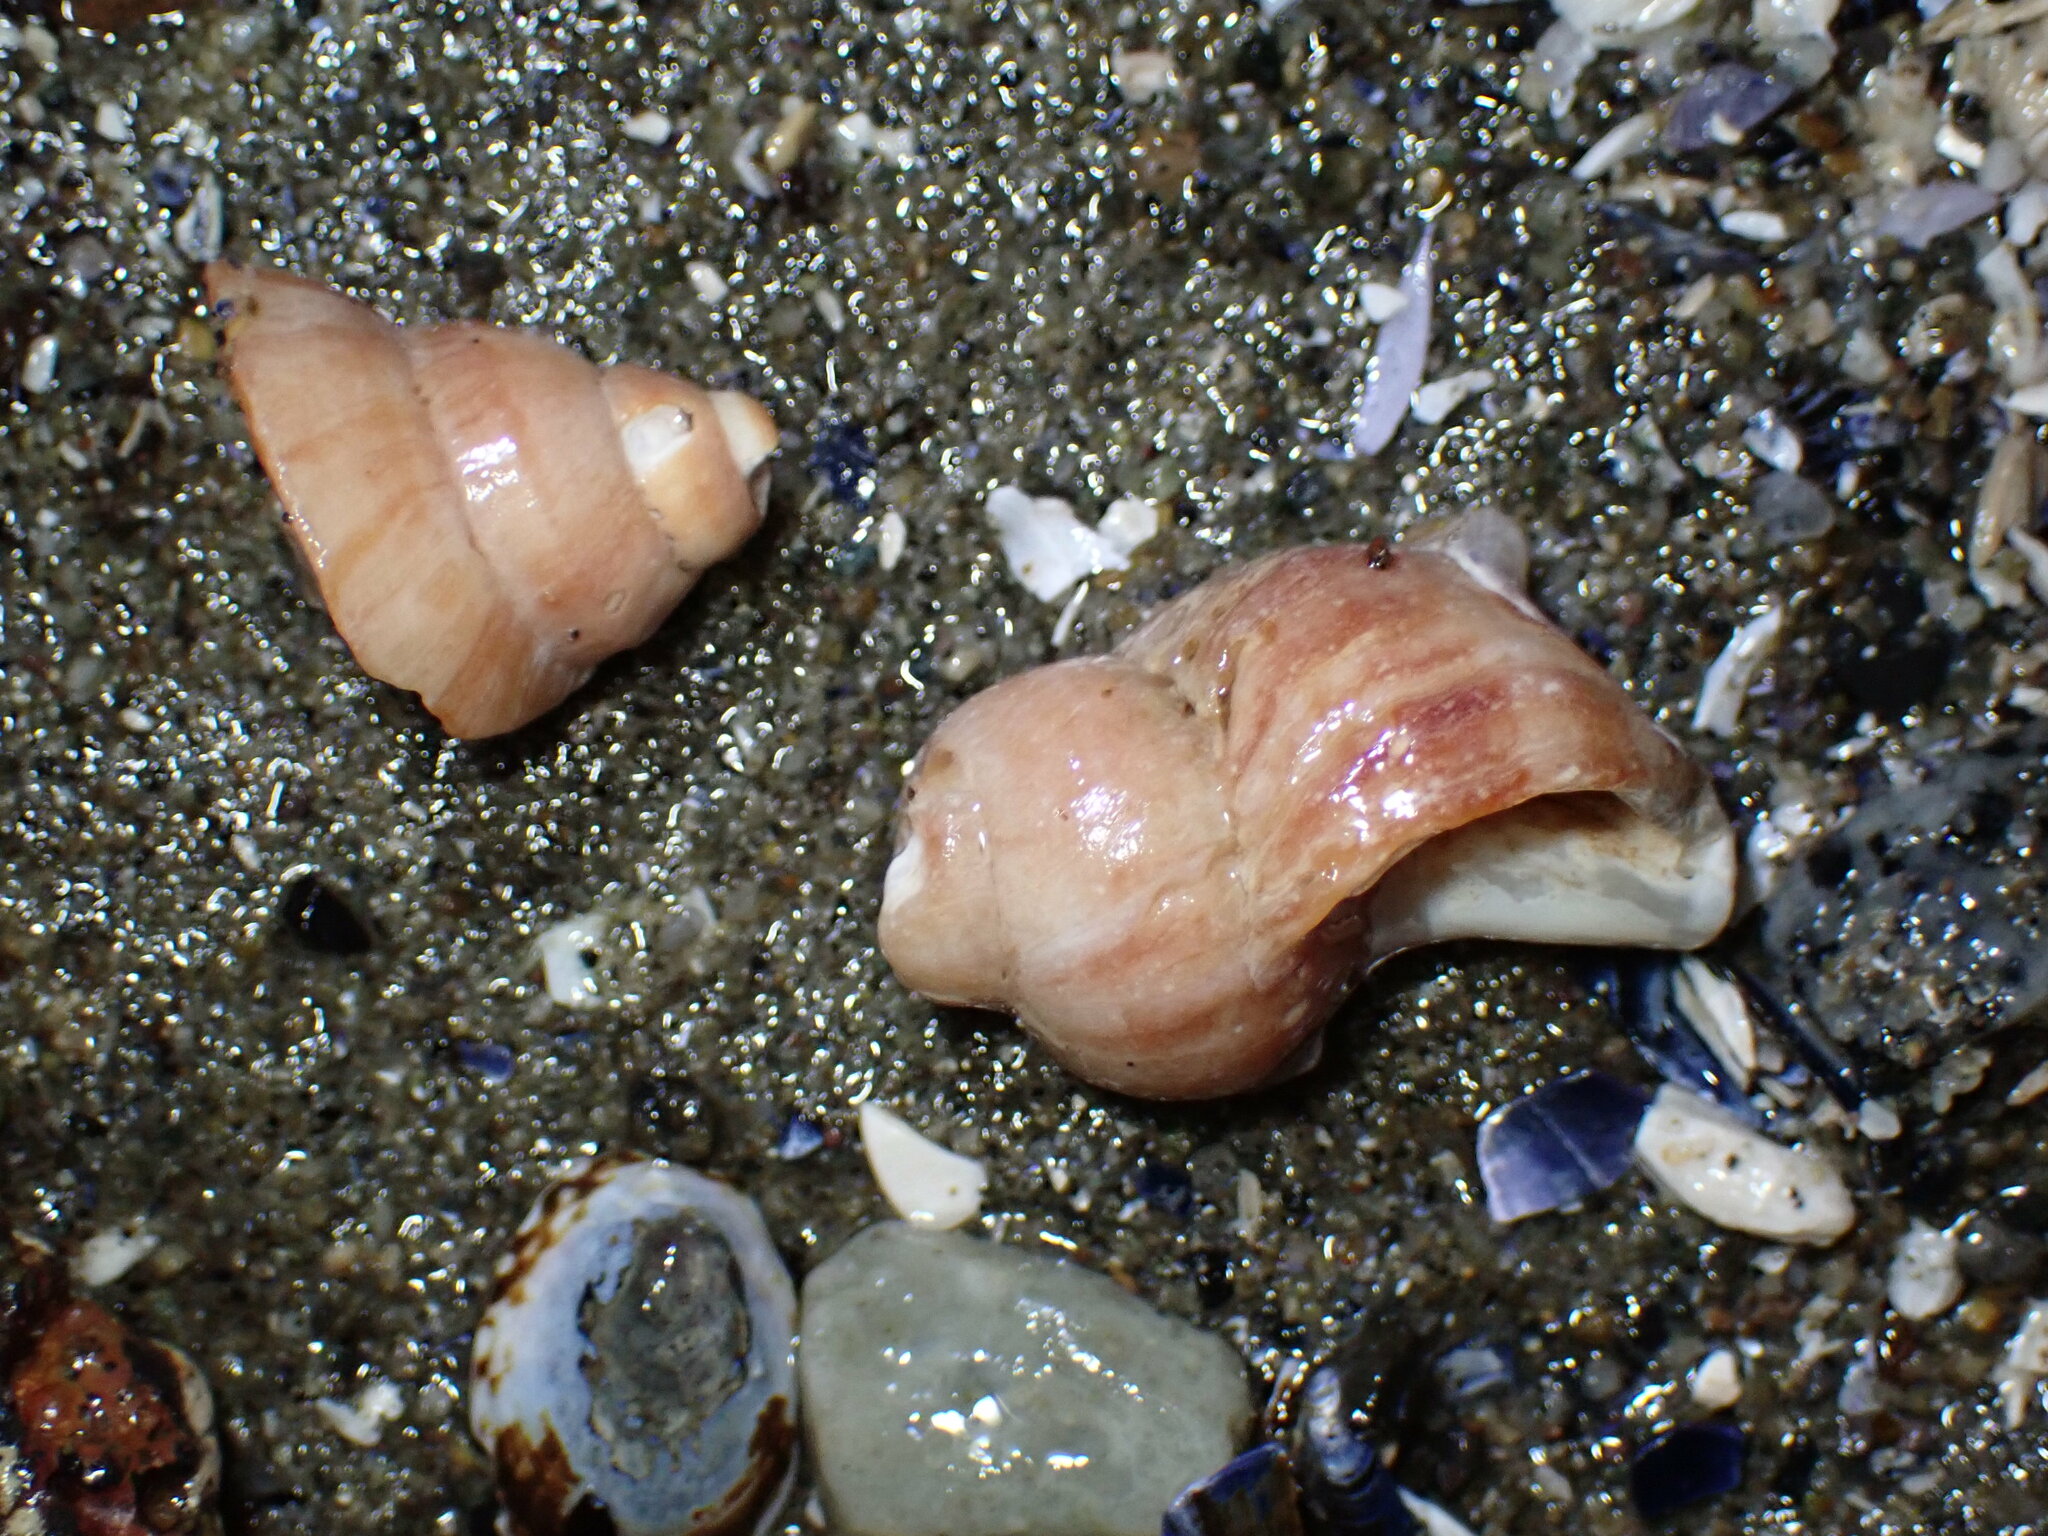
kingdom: Animalia
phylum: Mollusca
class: Gastropoda
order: Neogastropoda
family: Muricidae
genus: Nucella
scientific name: Nucella lamellosa
